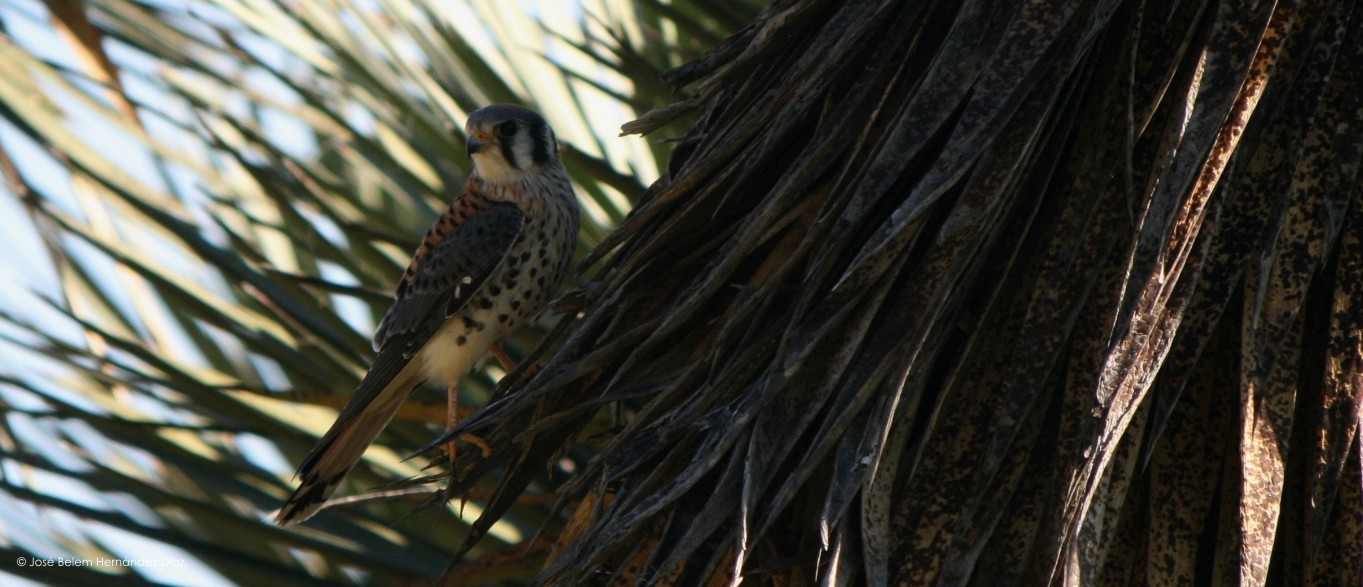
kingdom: Animalia
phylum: Chordata
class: Aves
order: Falconiformes
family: Falconidae
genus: Falco
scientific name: Falco sparverius
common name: American kestrel
